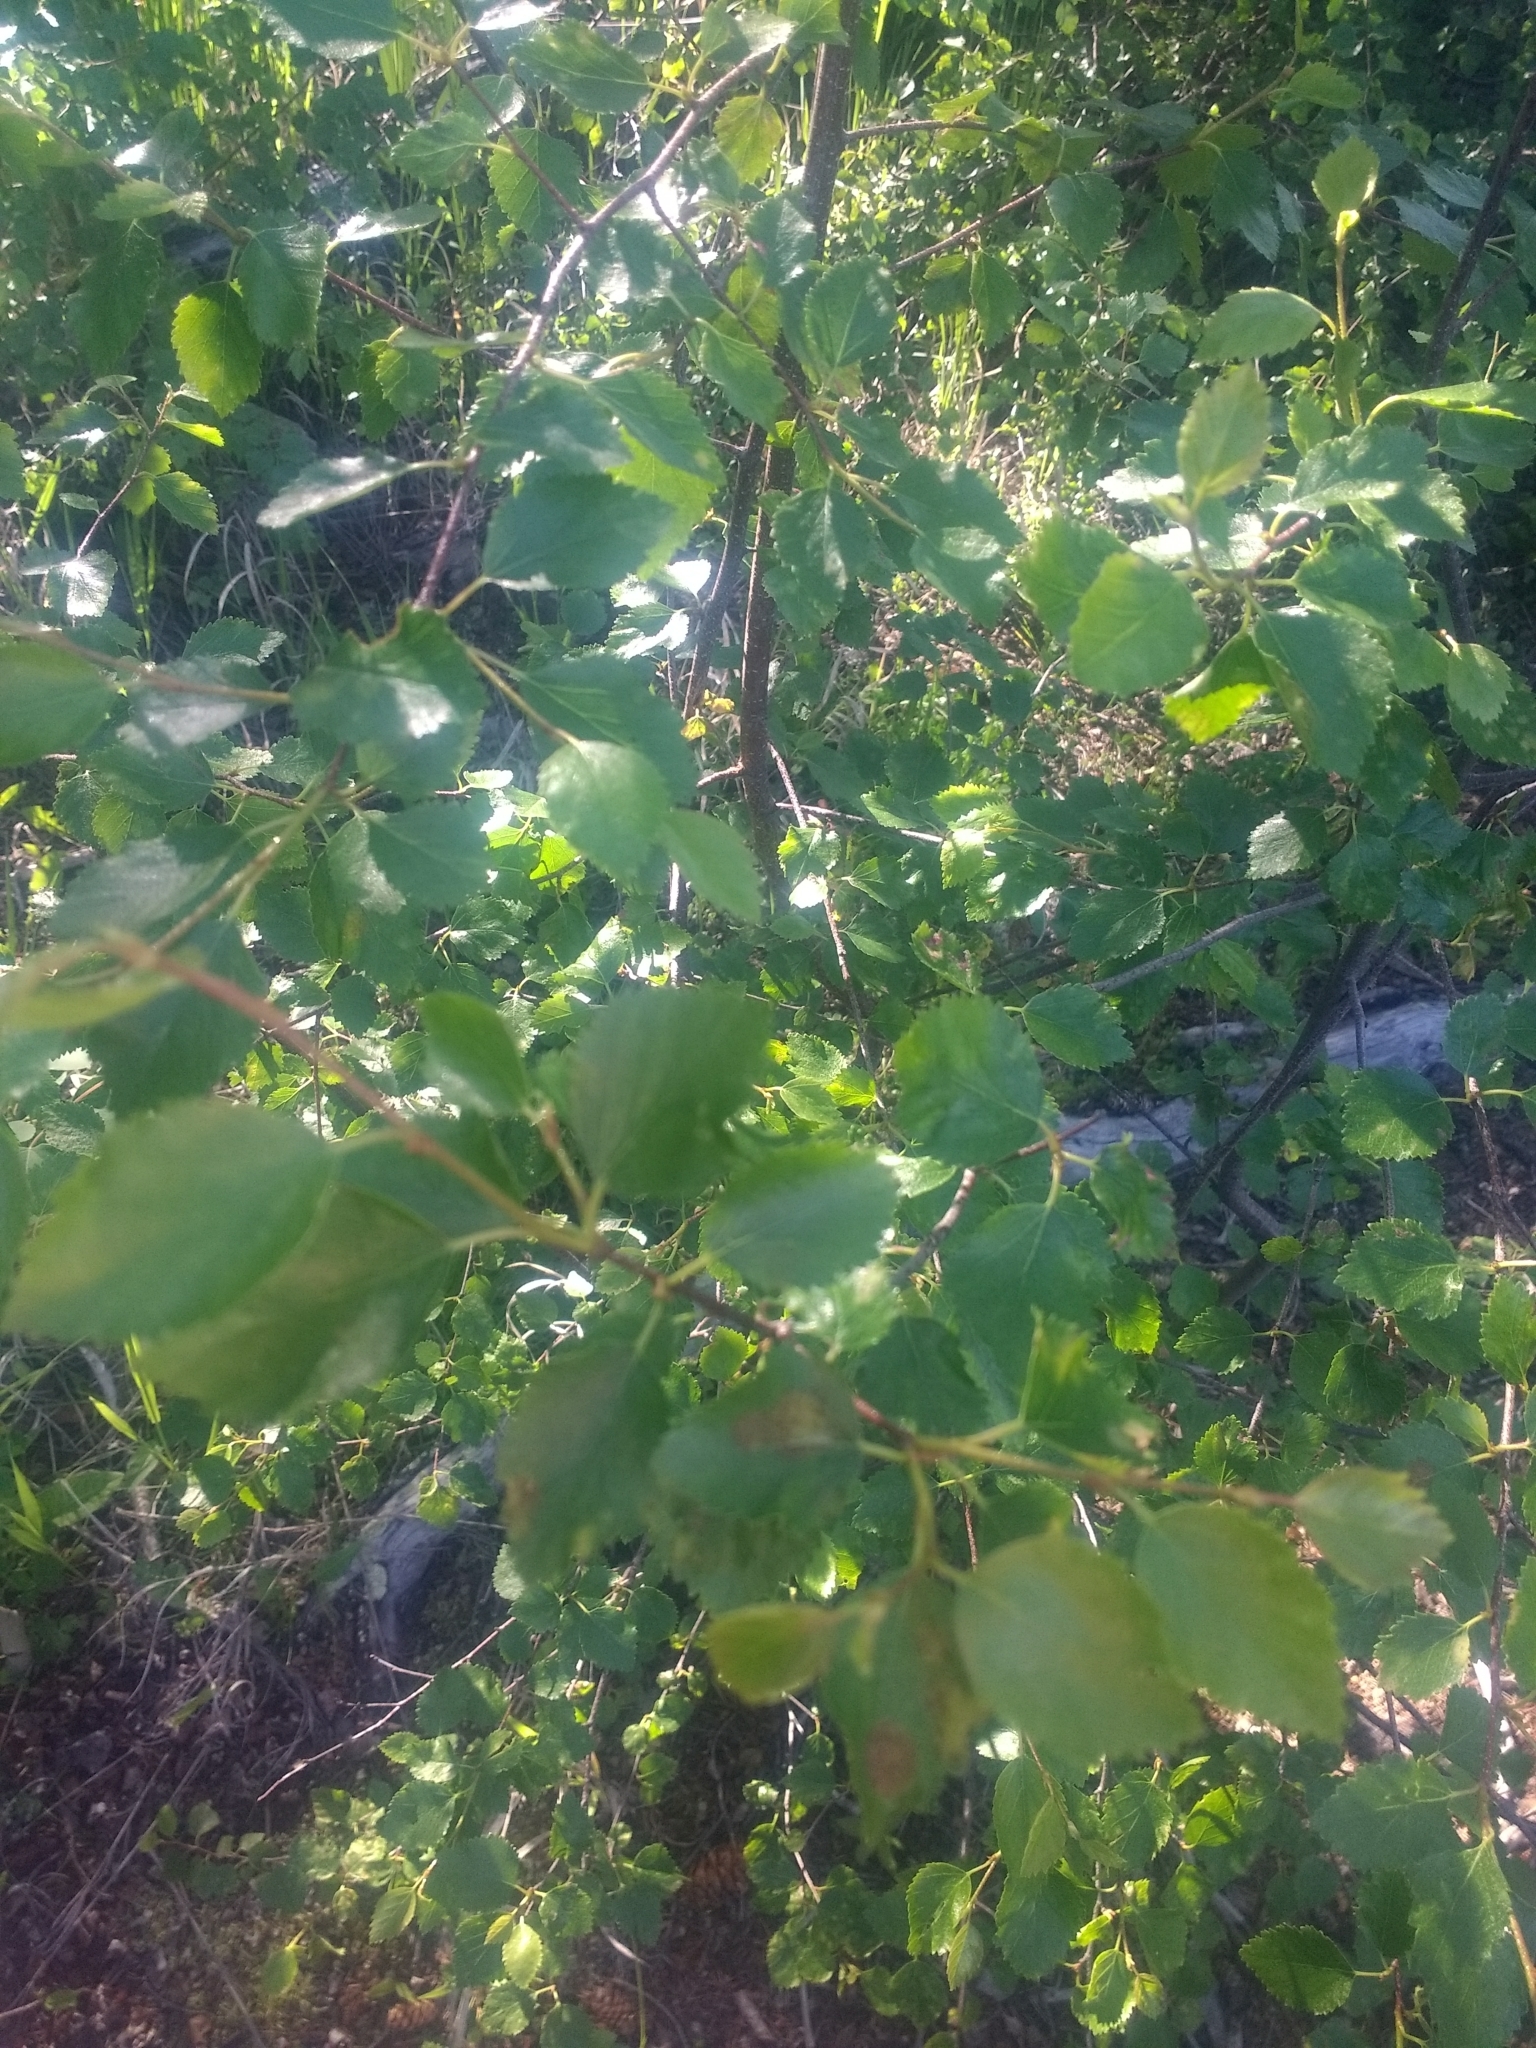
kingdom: Plantae
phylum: Tracheophyta
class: Magnoliopsida
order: Fagales
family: Betulaceae
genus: Betula
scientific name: Betula occidentalis
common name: River birch
